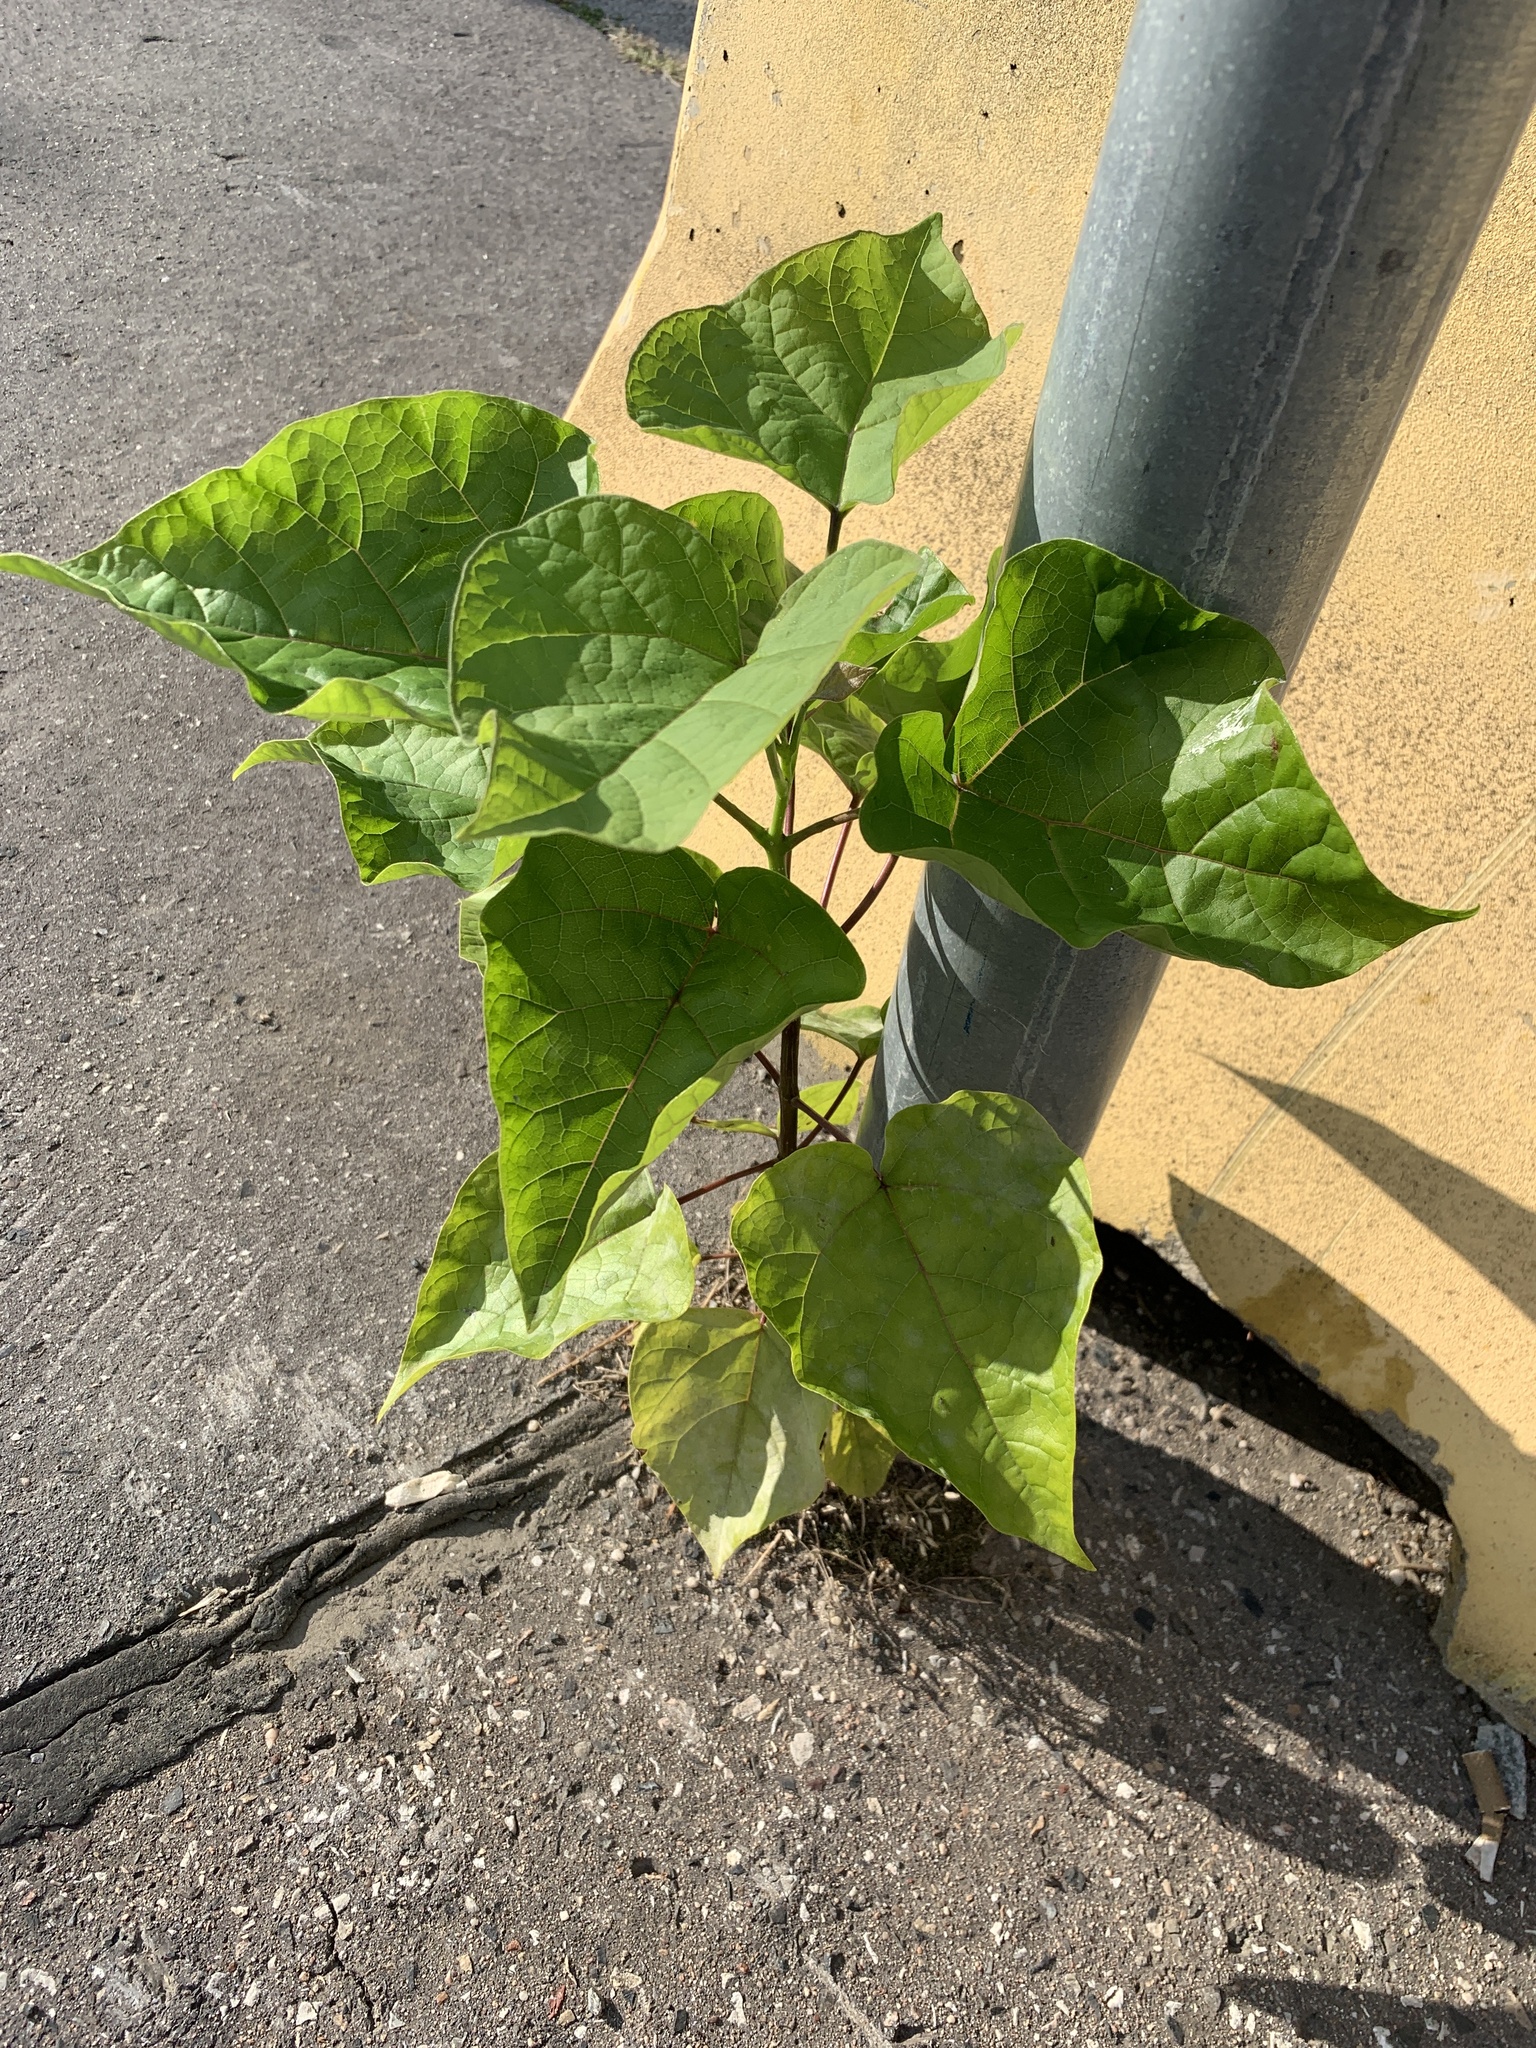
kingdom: Plantae
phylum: Tracheophyta
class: Magnoliopsida
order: Lamiales
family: Bignoniaceae
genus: Catalpa
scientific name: Catalpa bignonioides
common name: Southern catalpa
